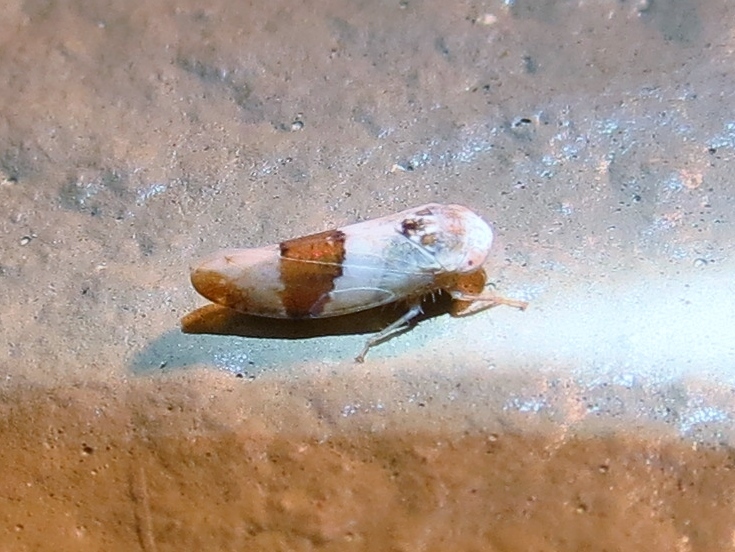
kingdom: Animalia
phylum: Arthropoda
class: Insecta
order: Hemiptera
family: Cicadellidae
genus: Norvellina
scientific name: Norvellina seminuda
